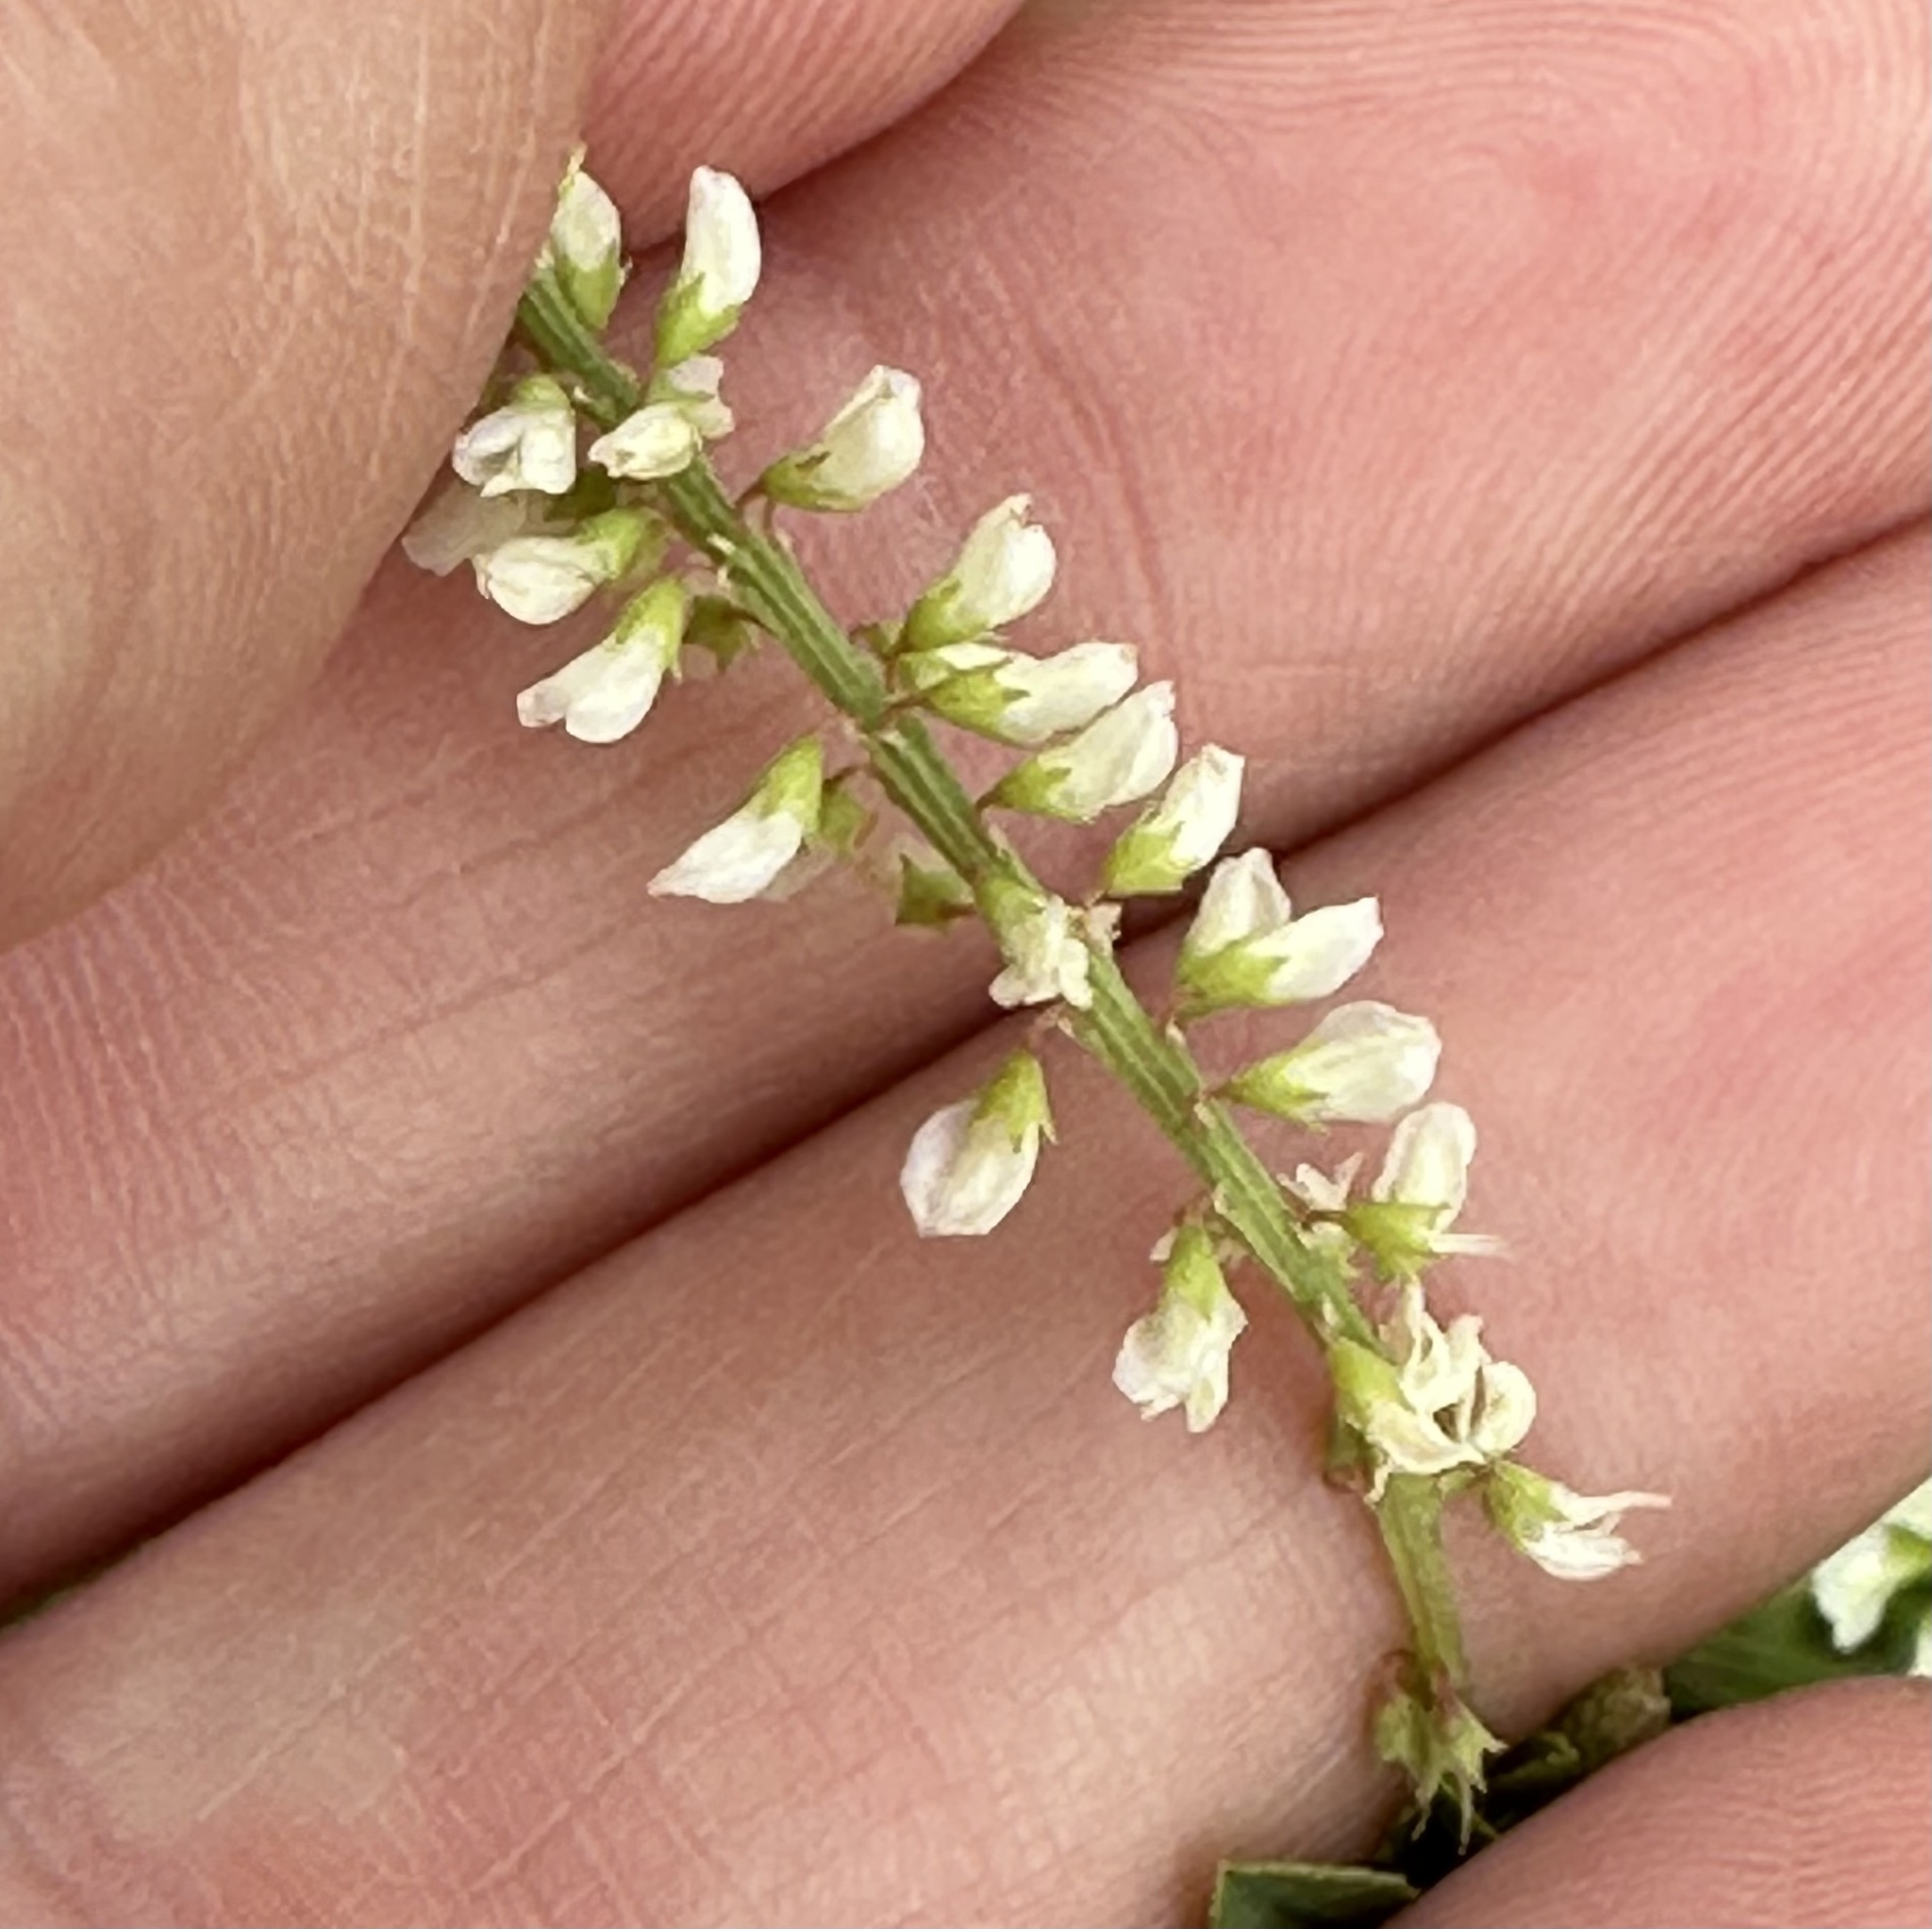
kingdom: Plantae
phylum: Tracheophyta
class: Magnoliopsida
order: Fabales
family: Fabaceae
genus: Melilotus
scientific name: Melilotus albus
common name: White melilot
